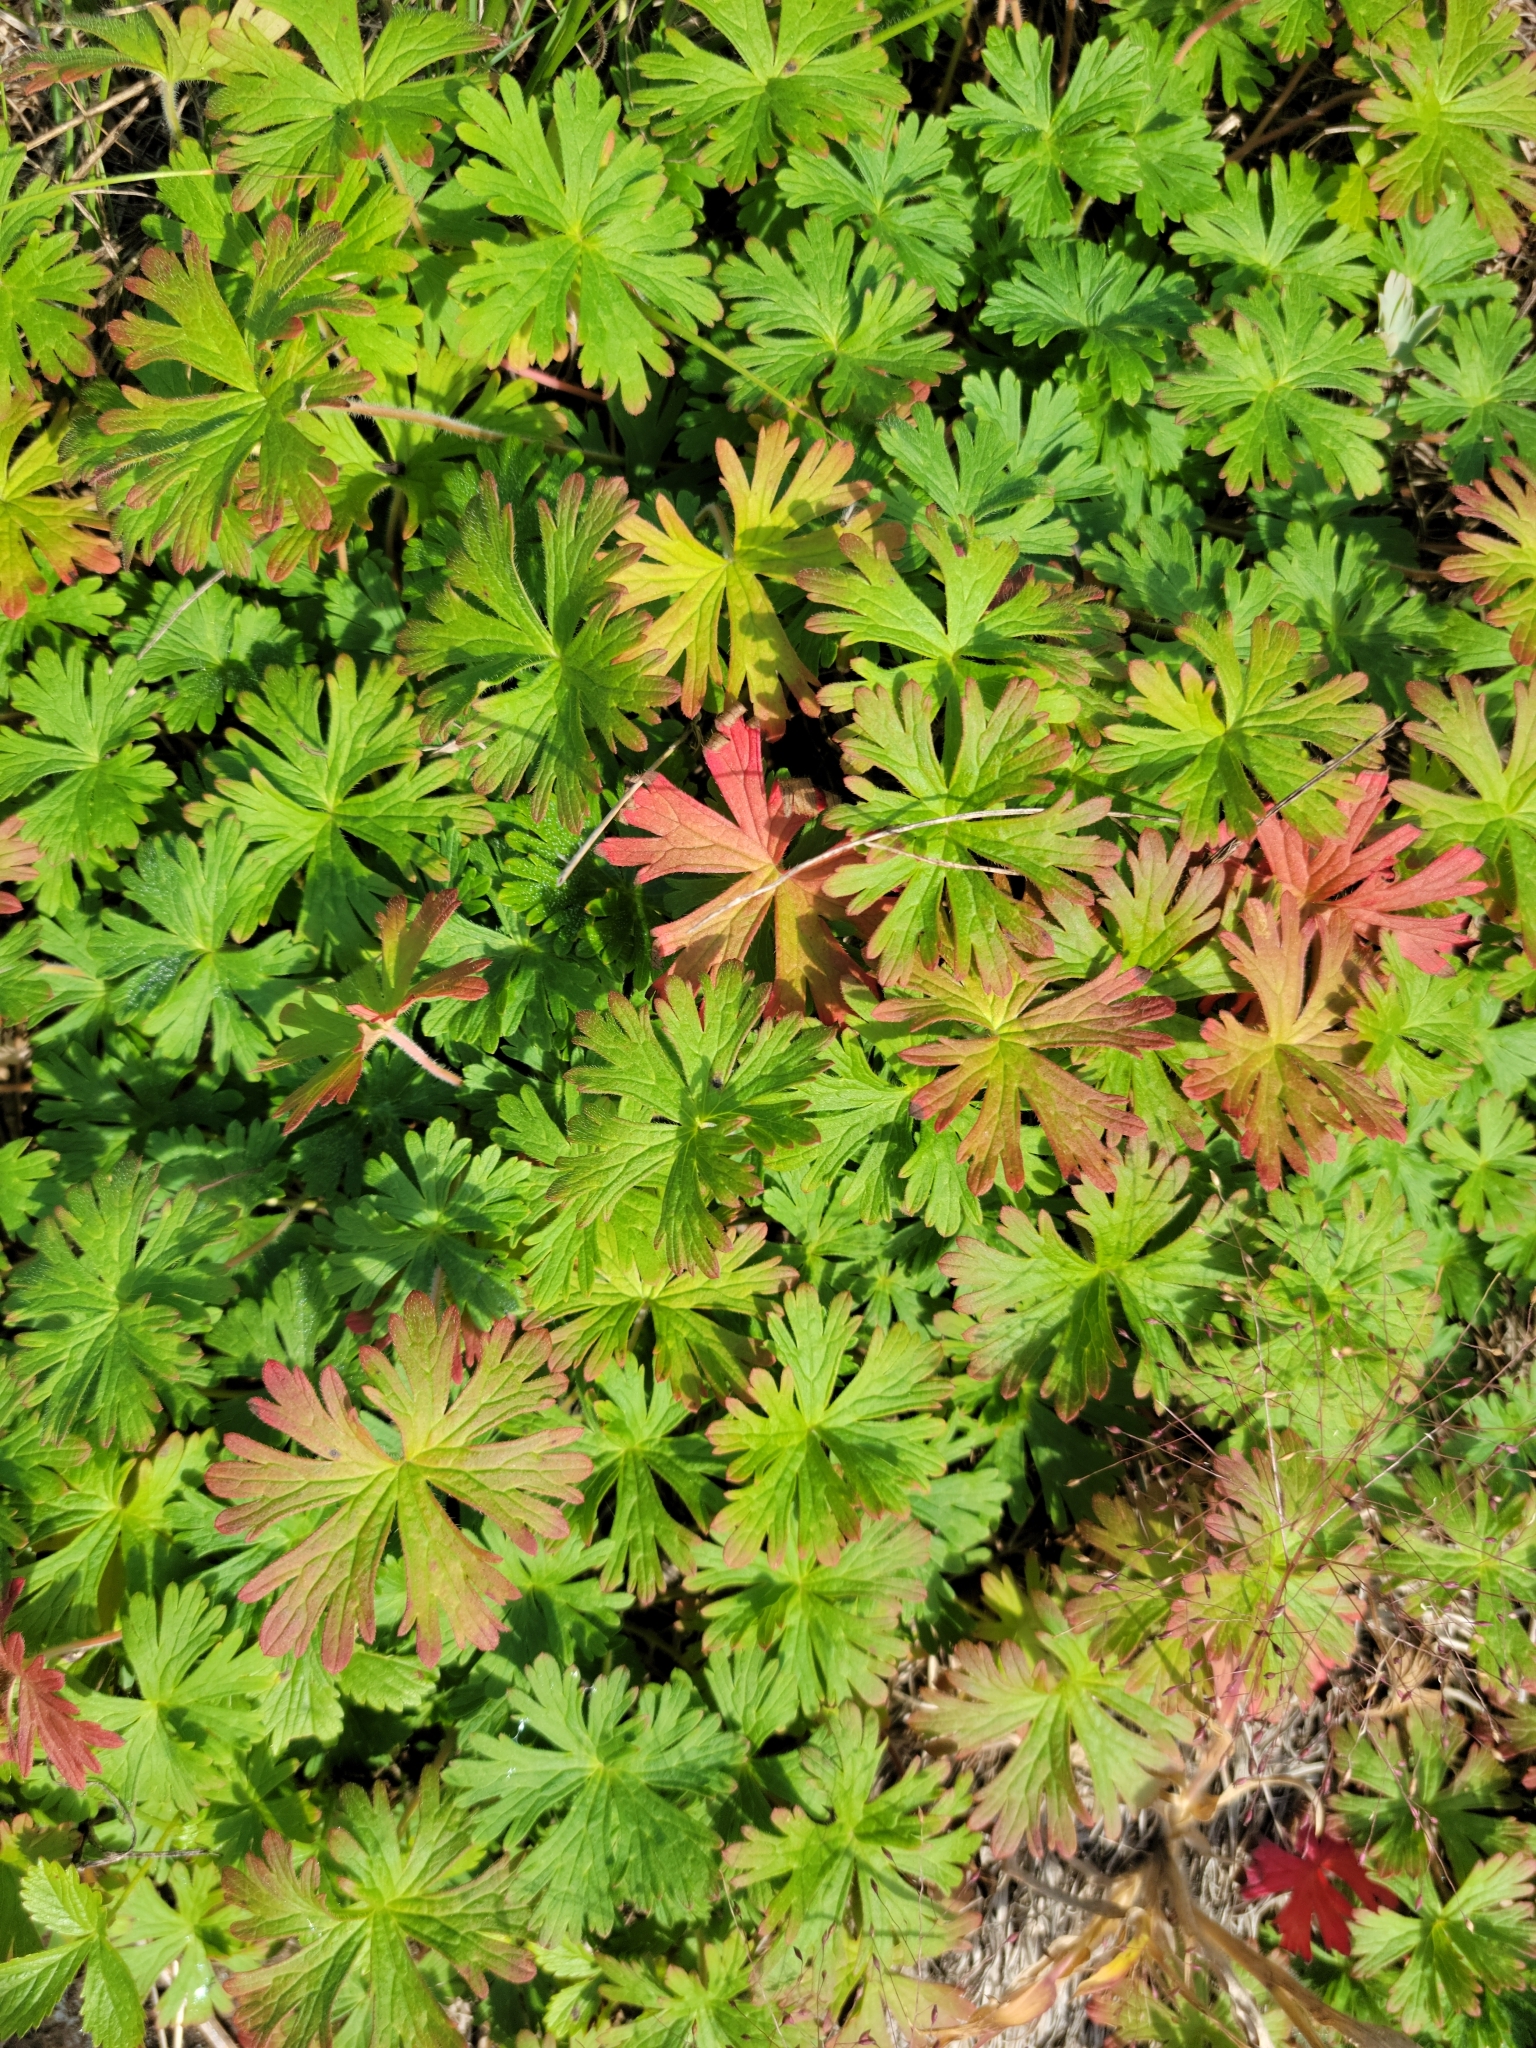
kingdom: Plantae
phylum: Tracheophyta
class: Magnoliopsida
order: Geraniales
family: Geraniaceae
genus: Geranium
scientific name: Geranium bicknellii
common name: Bicknell's cranesbill
